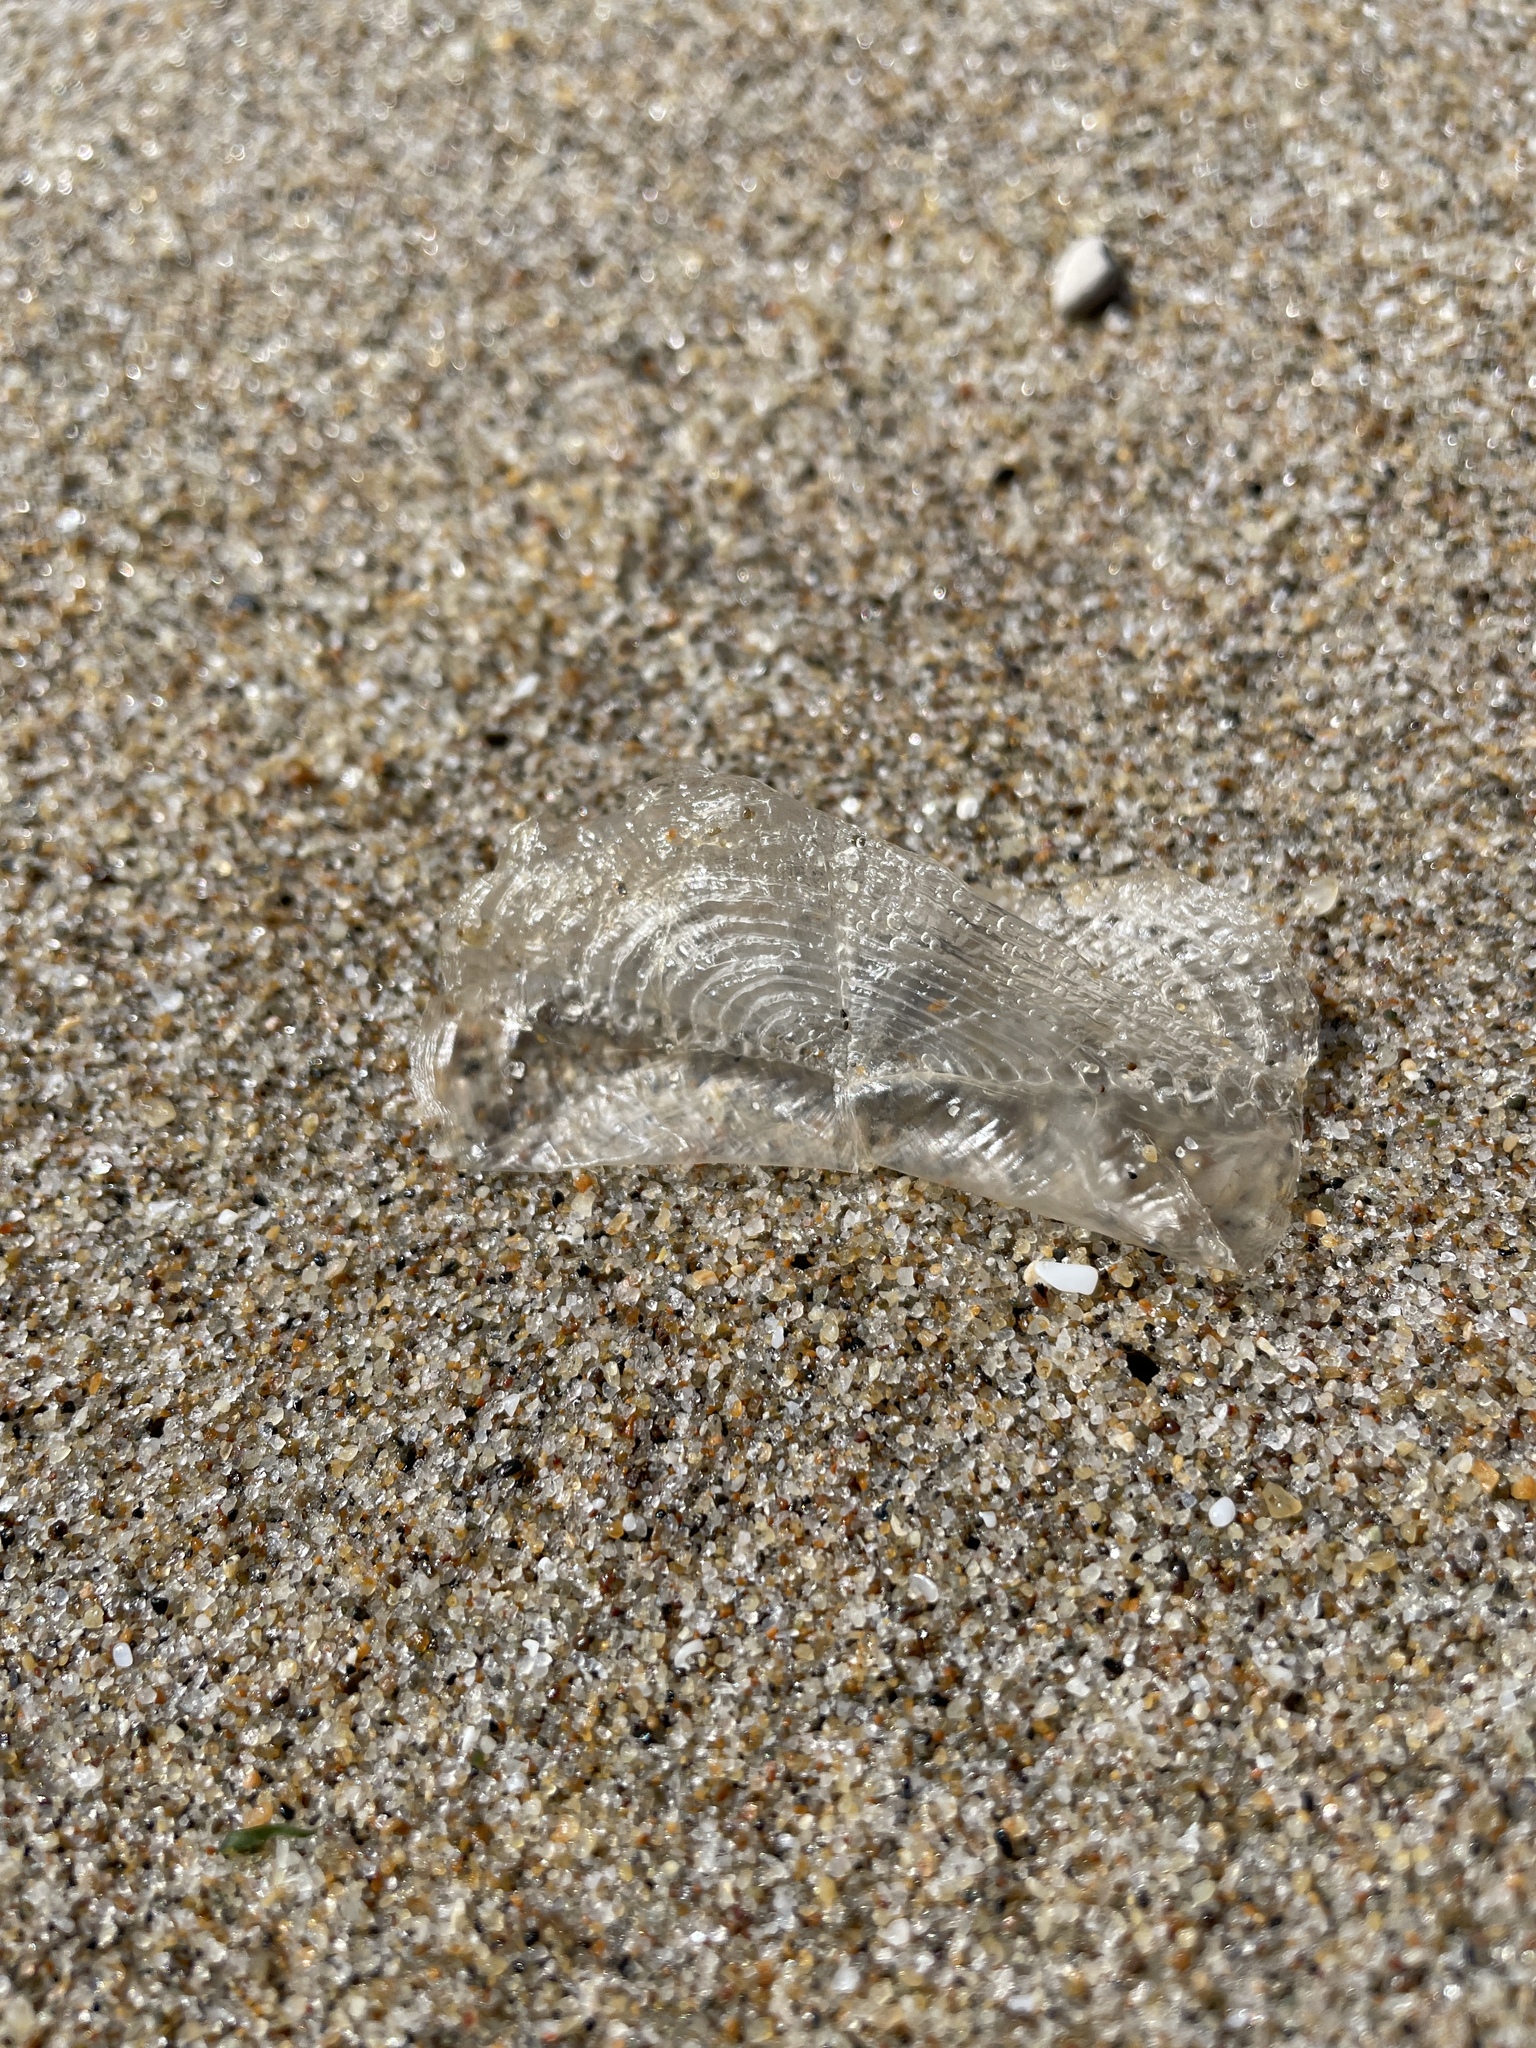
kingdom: Animalia
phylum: Cnidaria
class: Hydrozoa
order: Anthoathecata
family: Porpitidae
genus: Velella
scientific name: Velella velella
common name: By-the-wind-sailor
